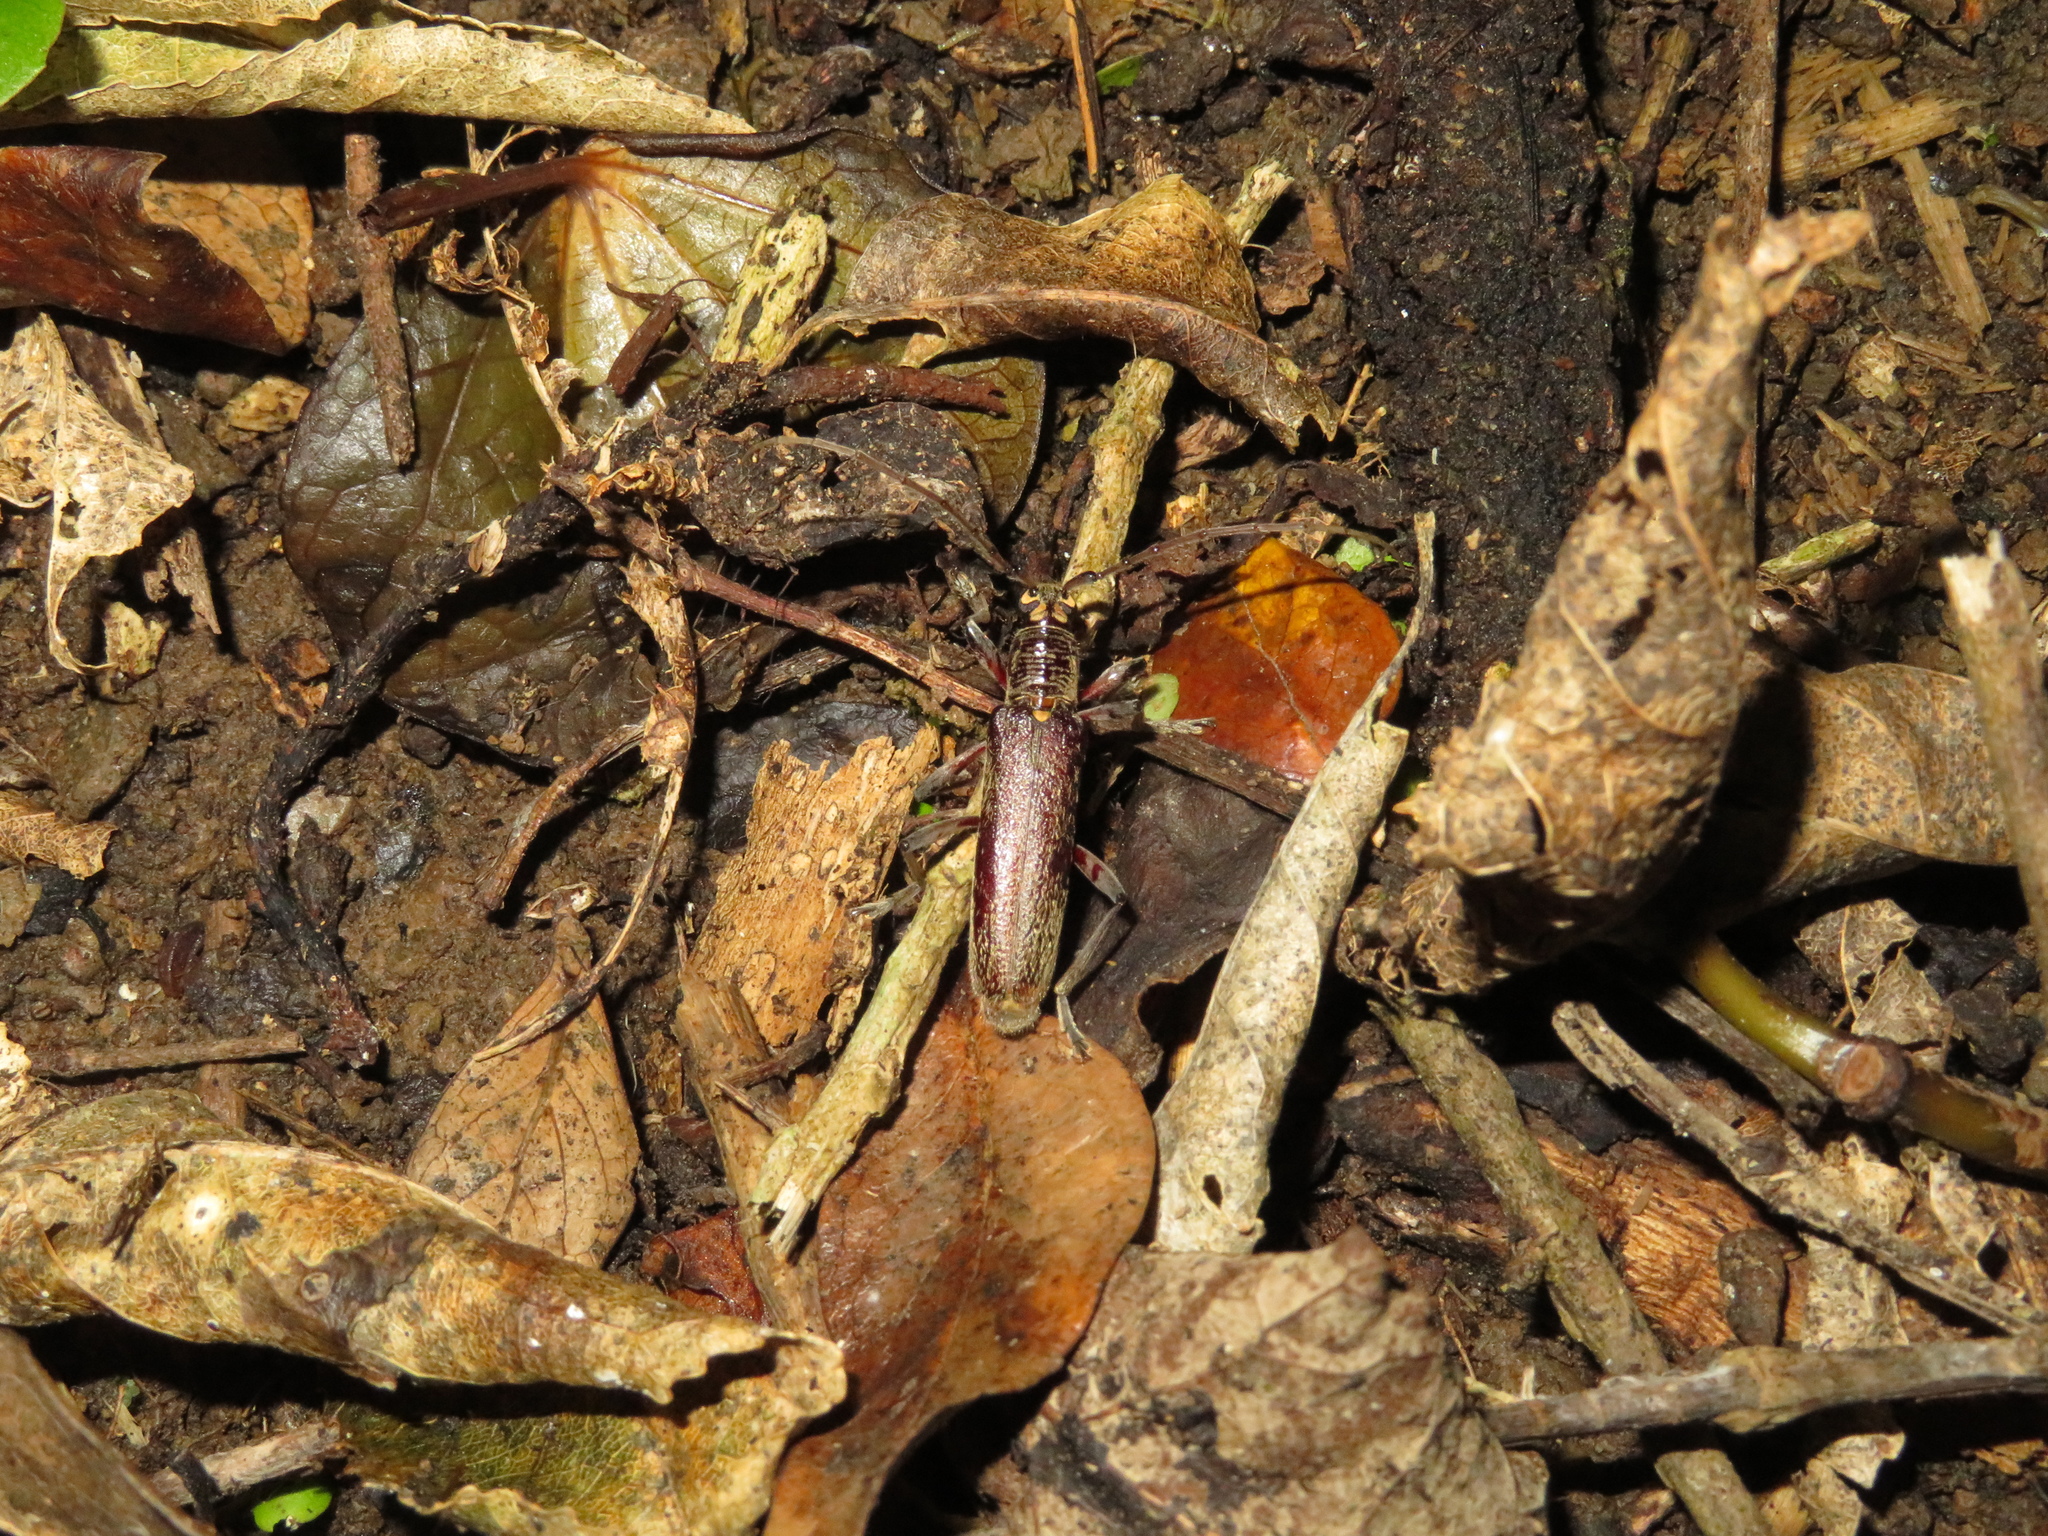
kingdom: Animalia
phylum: Arthropoda
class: Insecta
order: Coleoptera
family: Cerambycidae
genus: Oemona
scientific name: Oemona hirta
